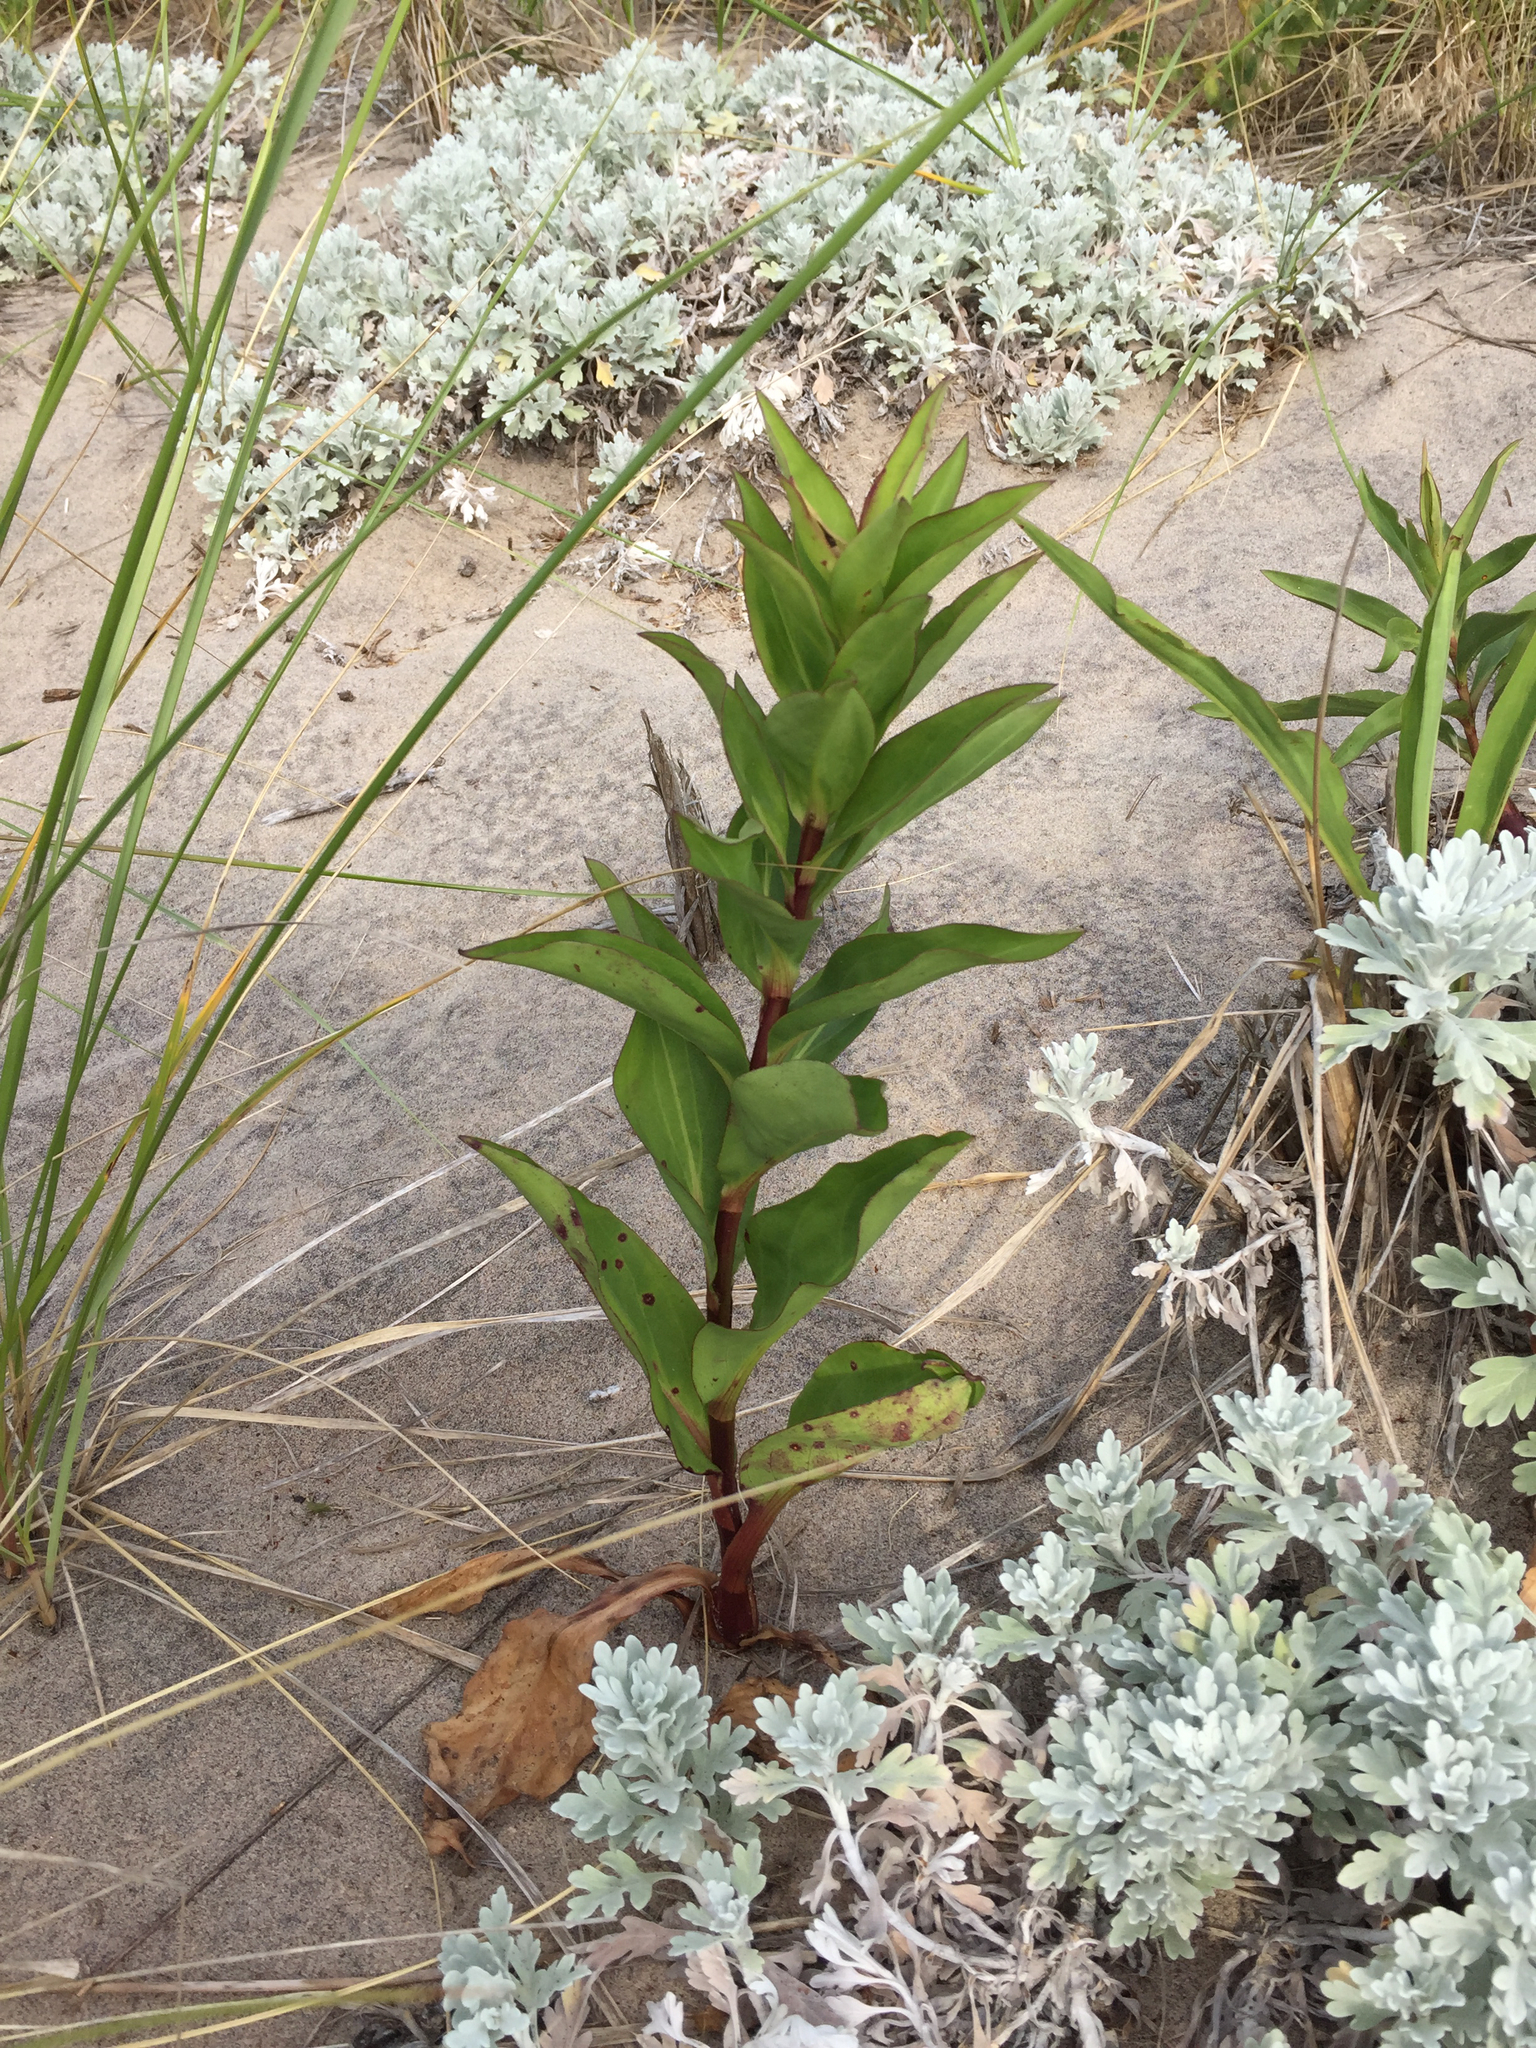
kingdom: Plantae
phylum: Tracheophyta
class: Magnoliopsida
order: Asterales
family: Asteraceae
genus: Solidago
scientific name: Solidago sempervirens
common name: Salt-marsh goldenrod
